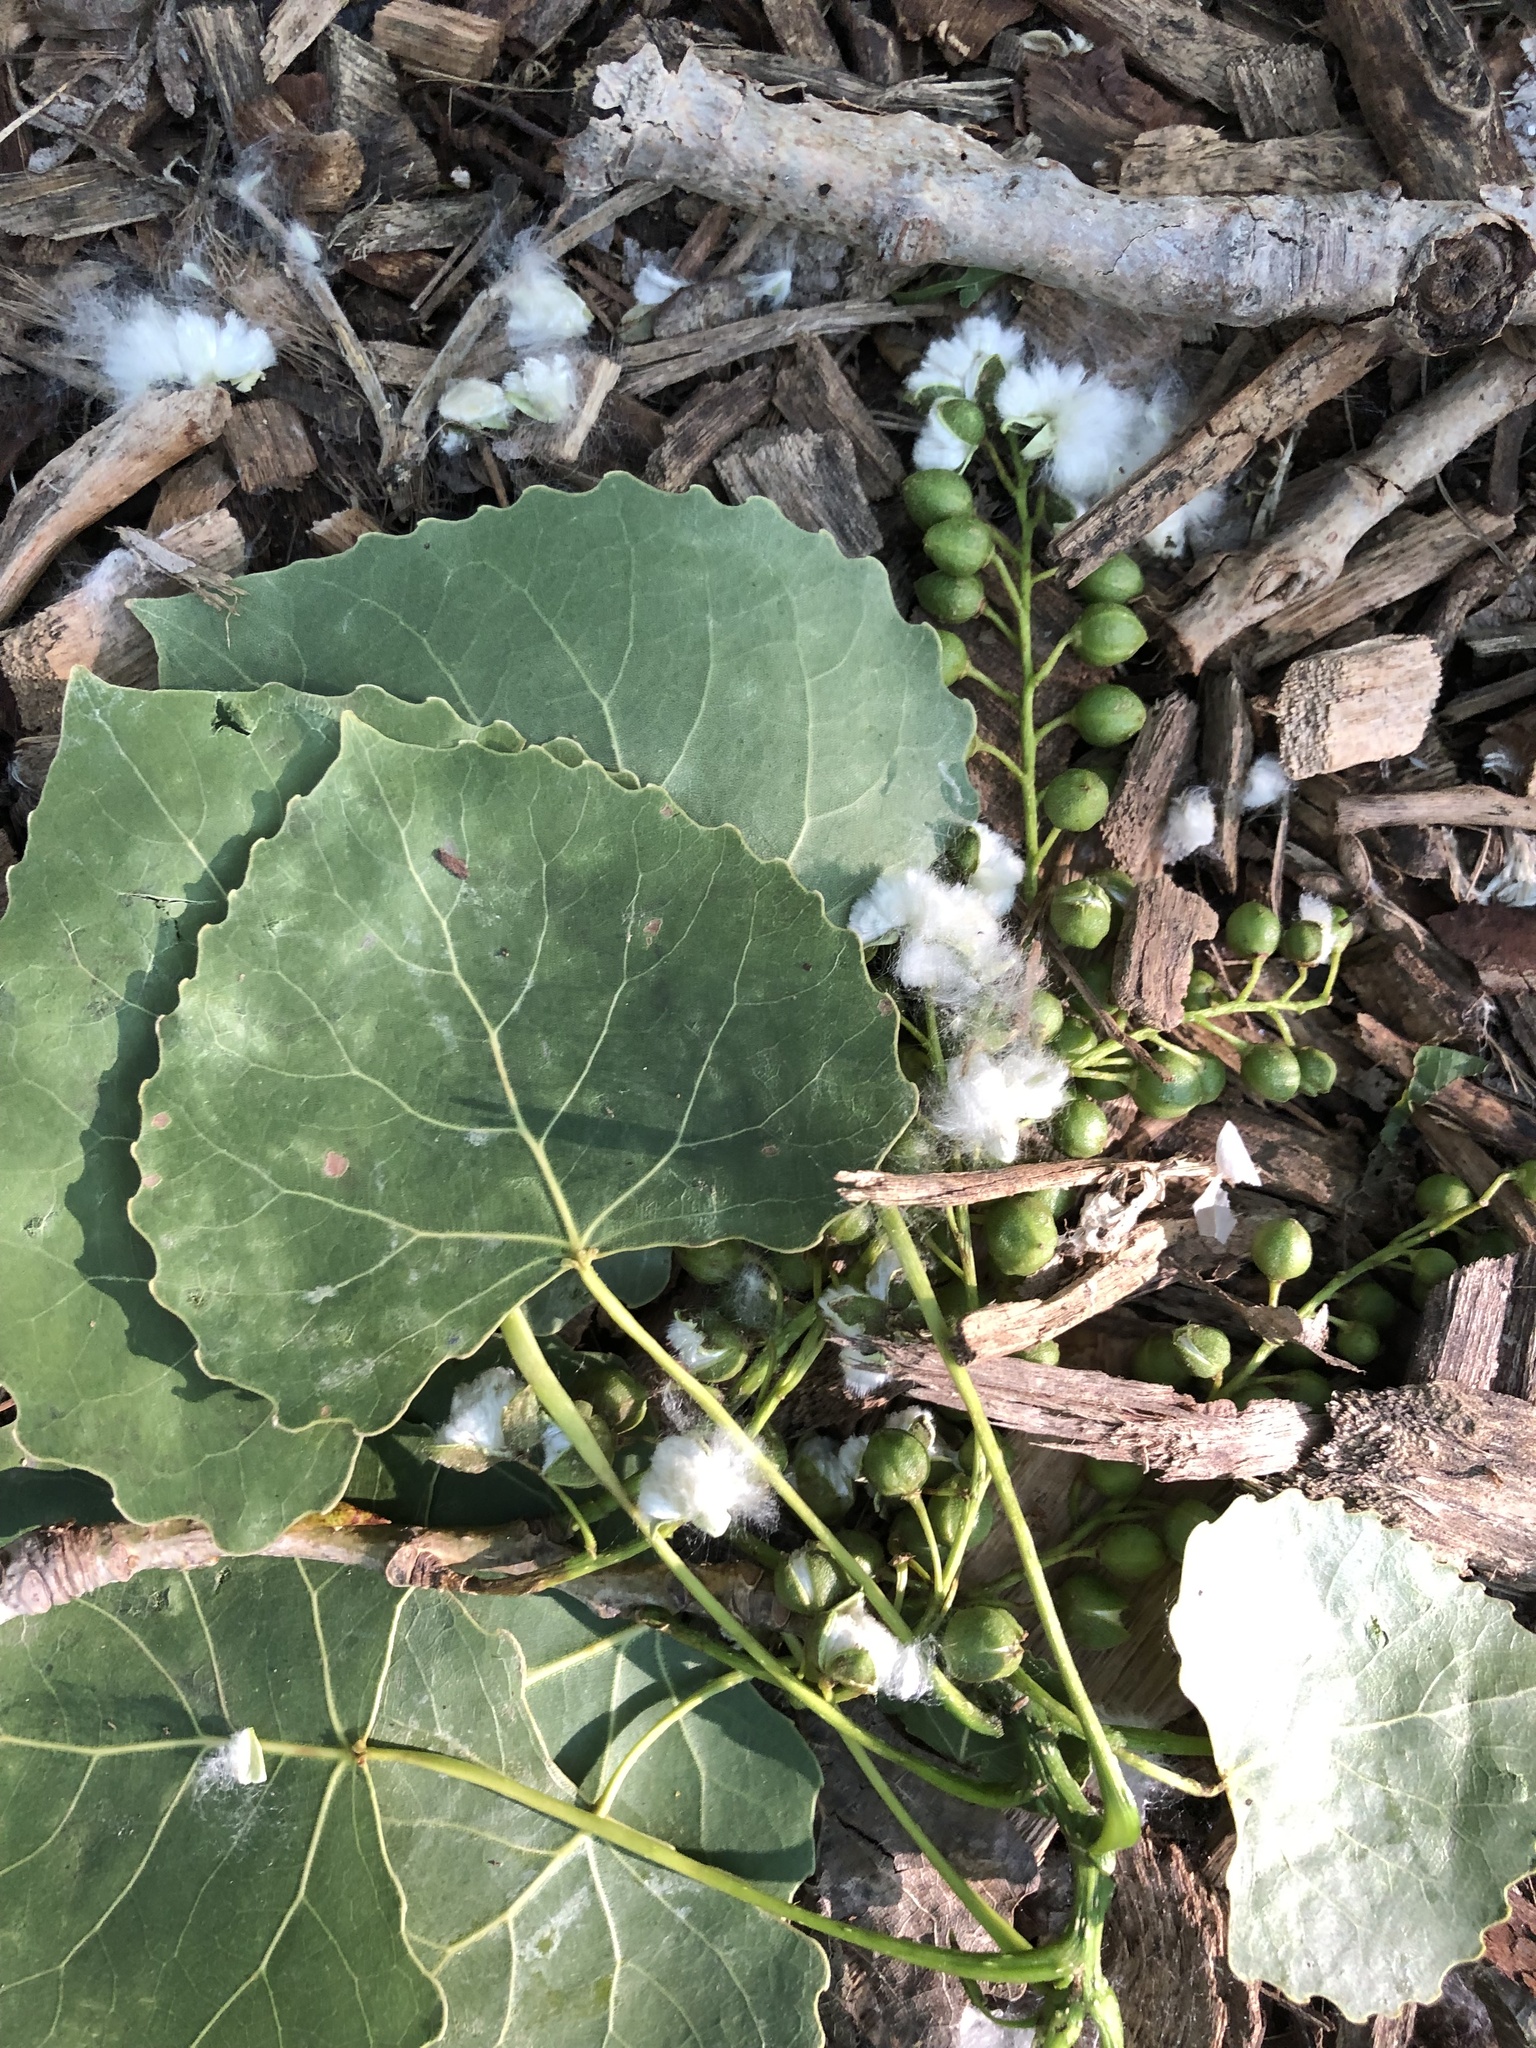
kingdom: Plantae
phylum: Tracheophyta
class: Magnoliopsida
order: Malpighiales
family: Salicaceae
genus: Populus
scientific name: Populus deltoides
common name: Eastern cottonwood
